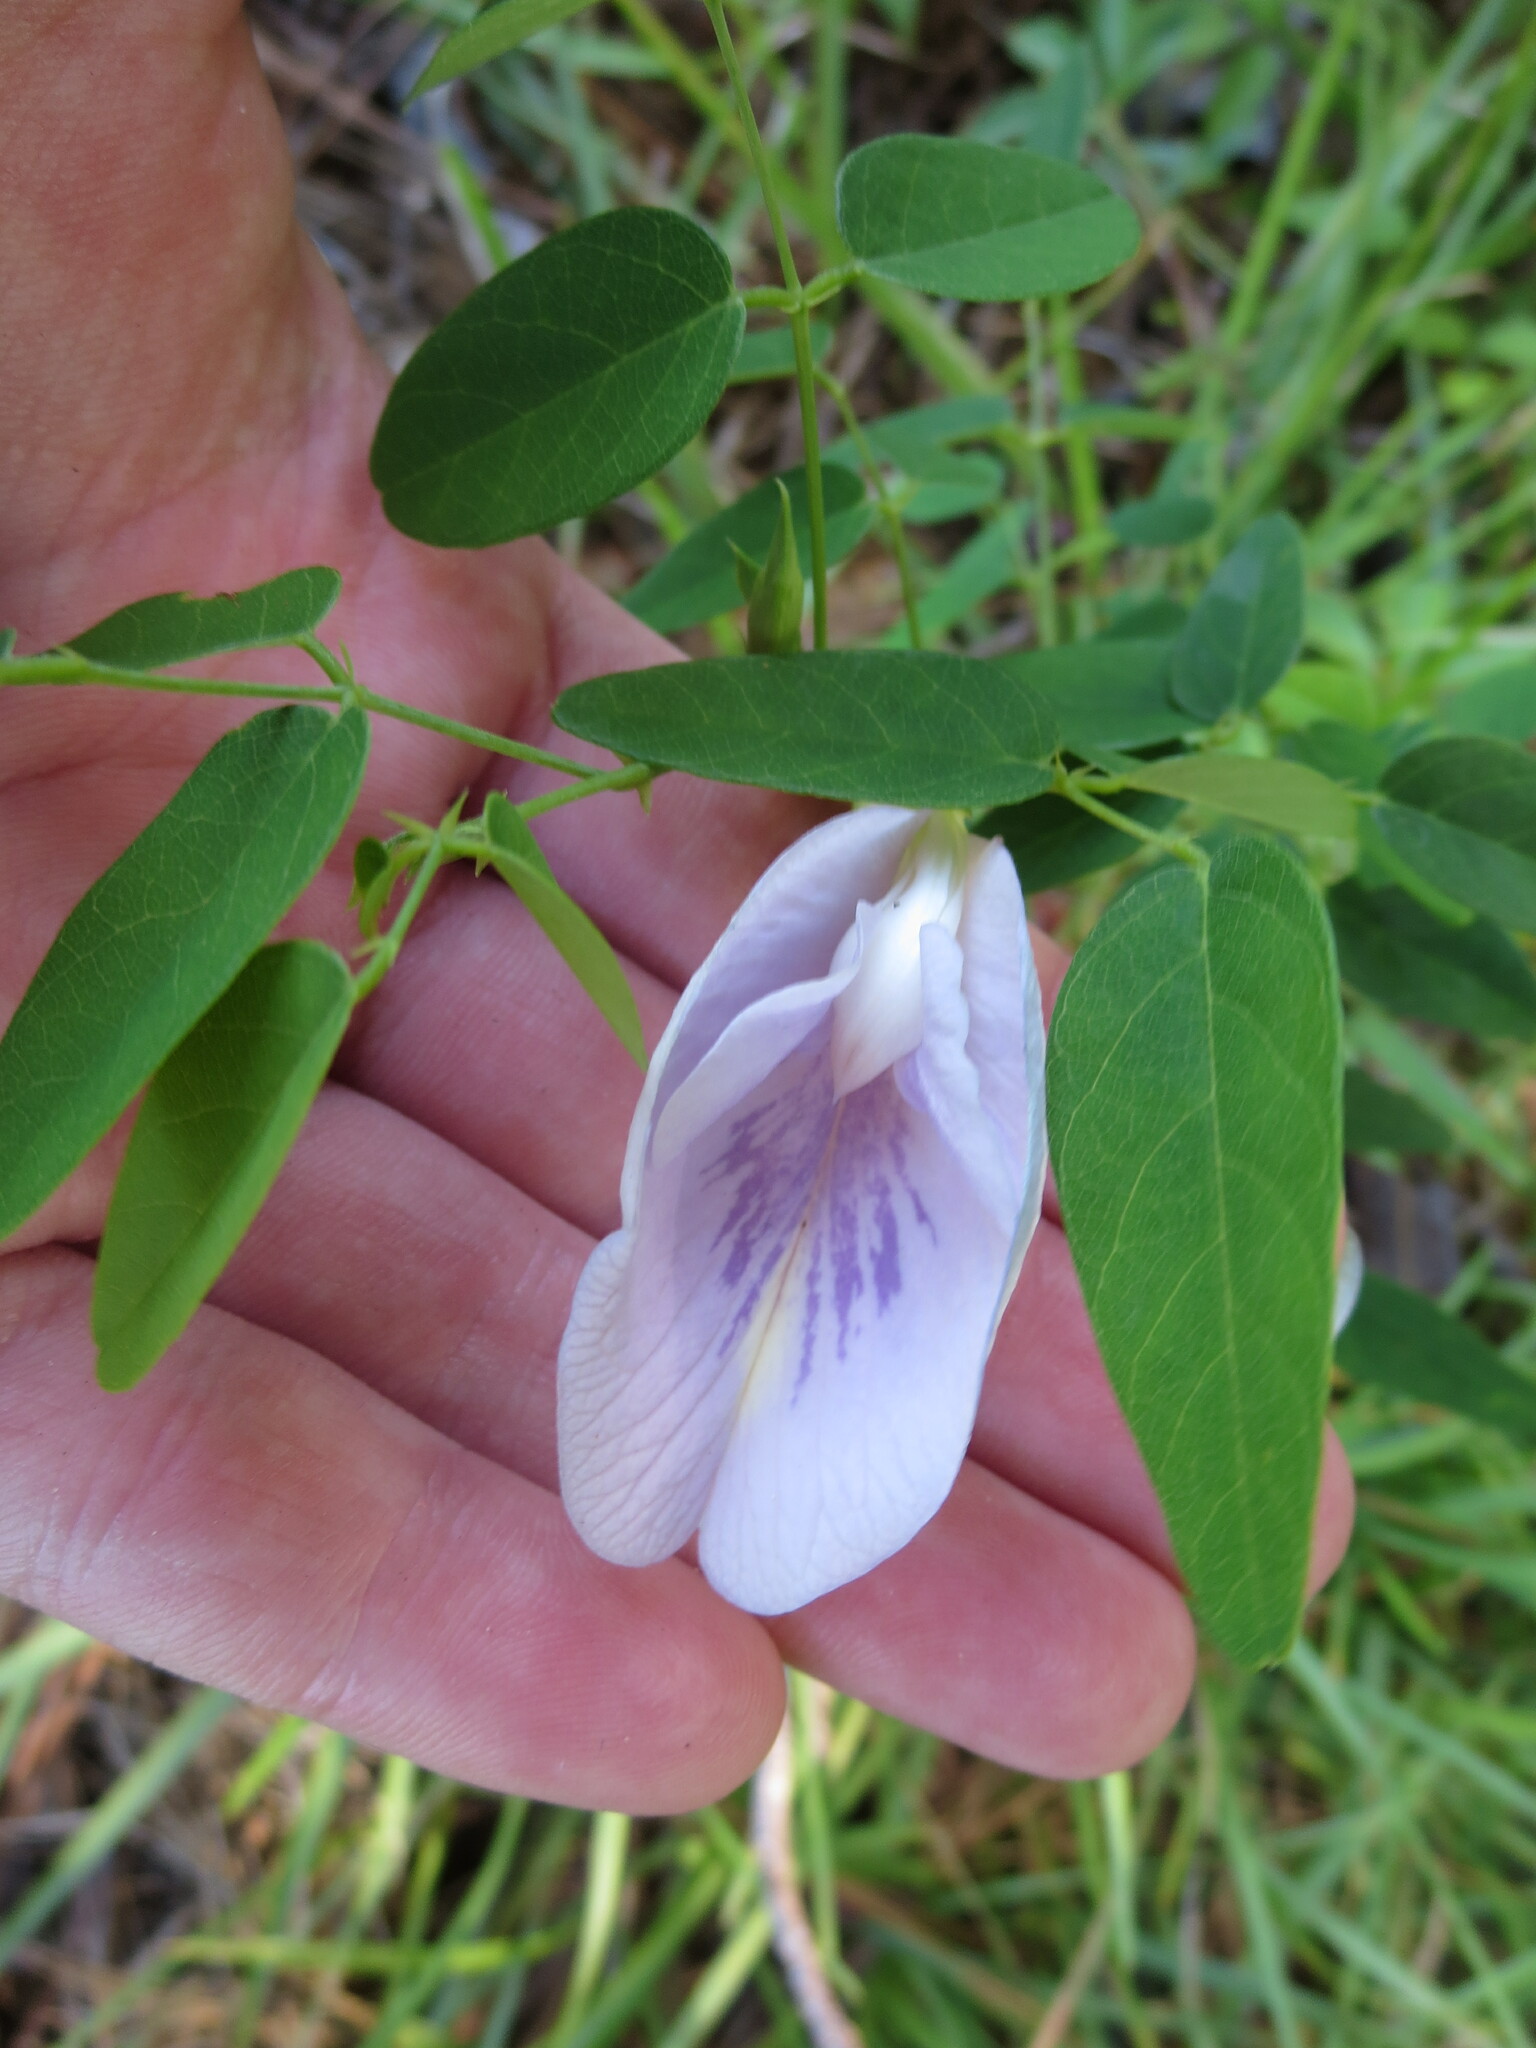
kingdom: Plantae
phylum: Tracheophyta
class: Magnoliopsida
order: Fabales
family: Fabaceae
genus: Clitoria
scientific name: Clitoria mariana
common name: Butterfly-pea
